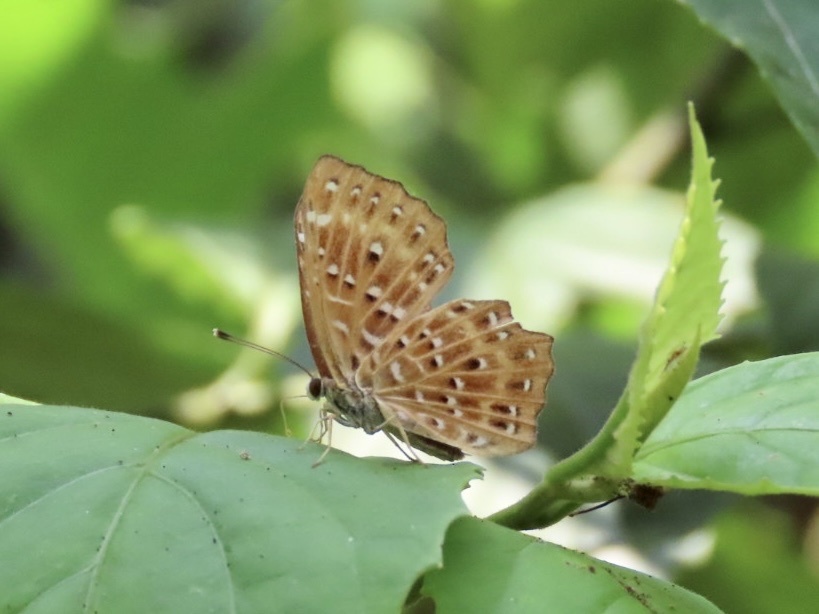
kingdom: Animalia
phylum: Arthropoda
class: Insecta
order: Lepidoptera
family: Riodinidae
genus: Zemeros
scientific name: Zemeros flegyas
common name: Punchinello
